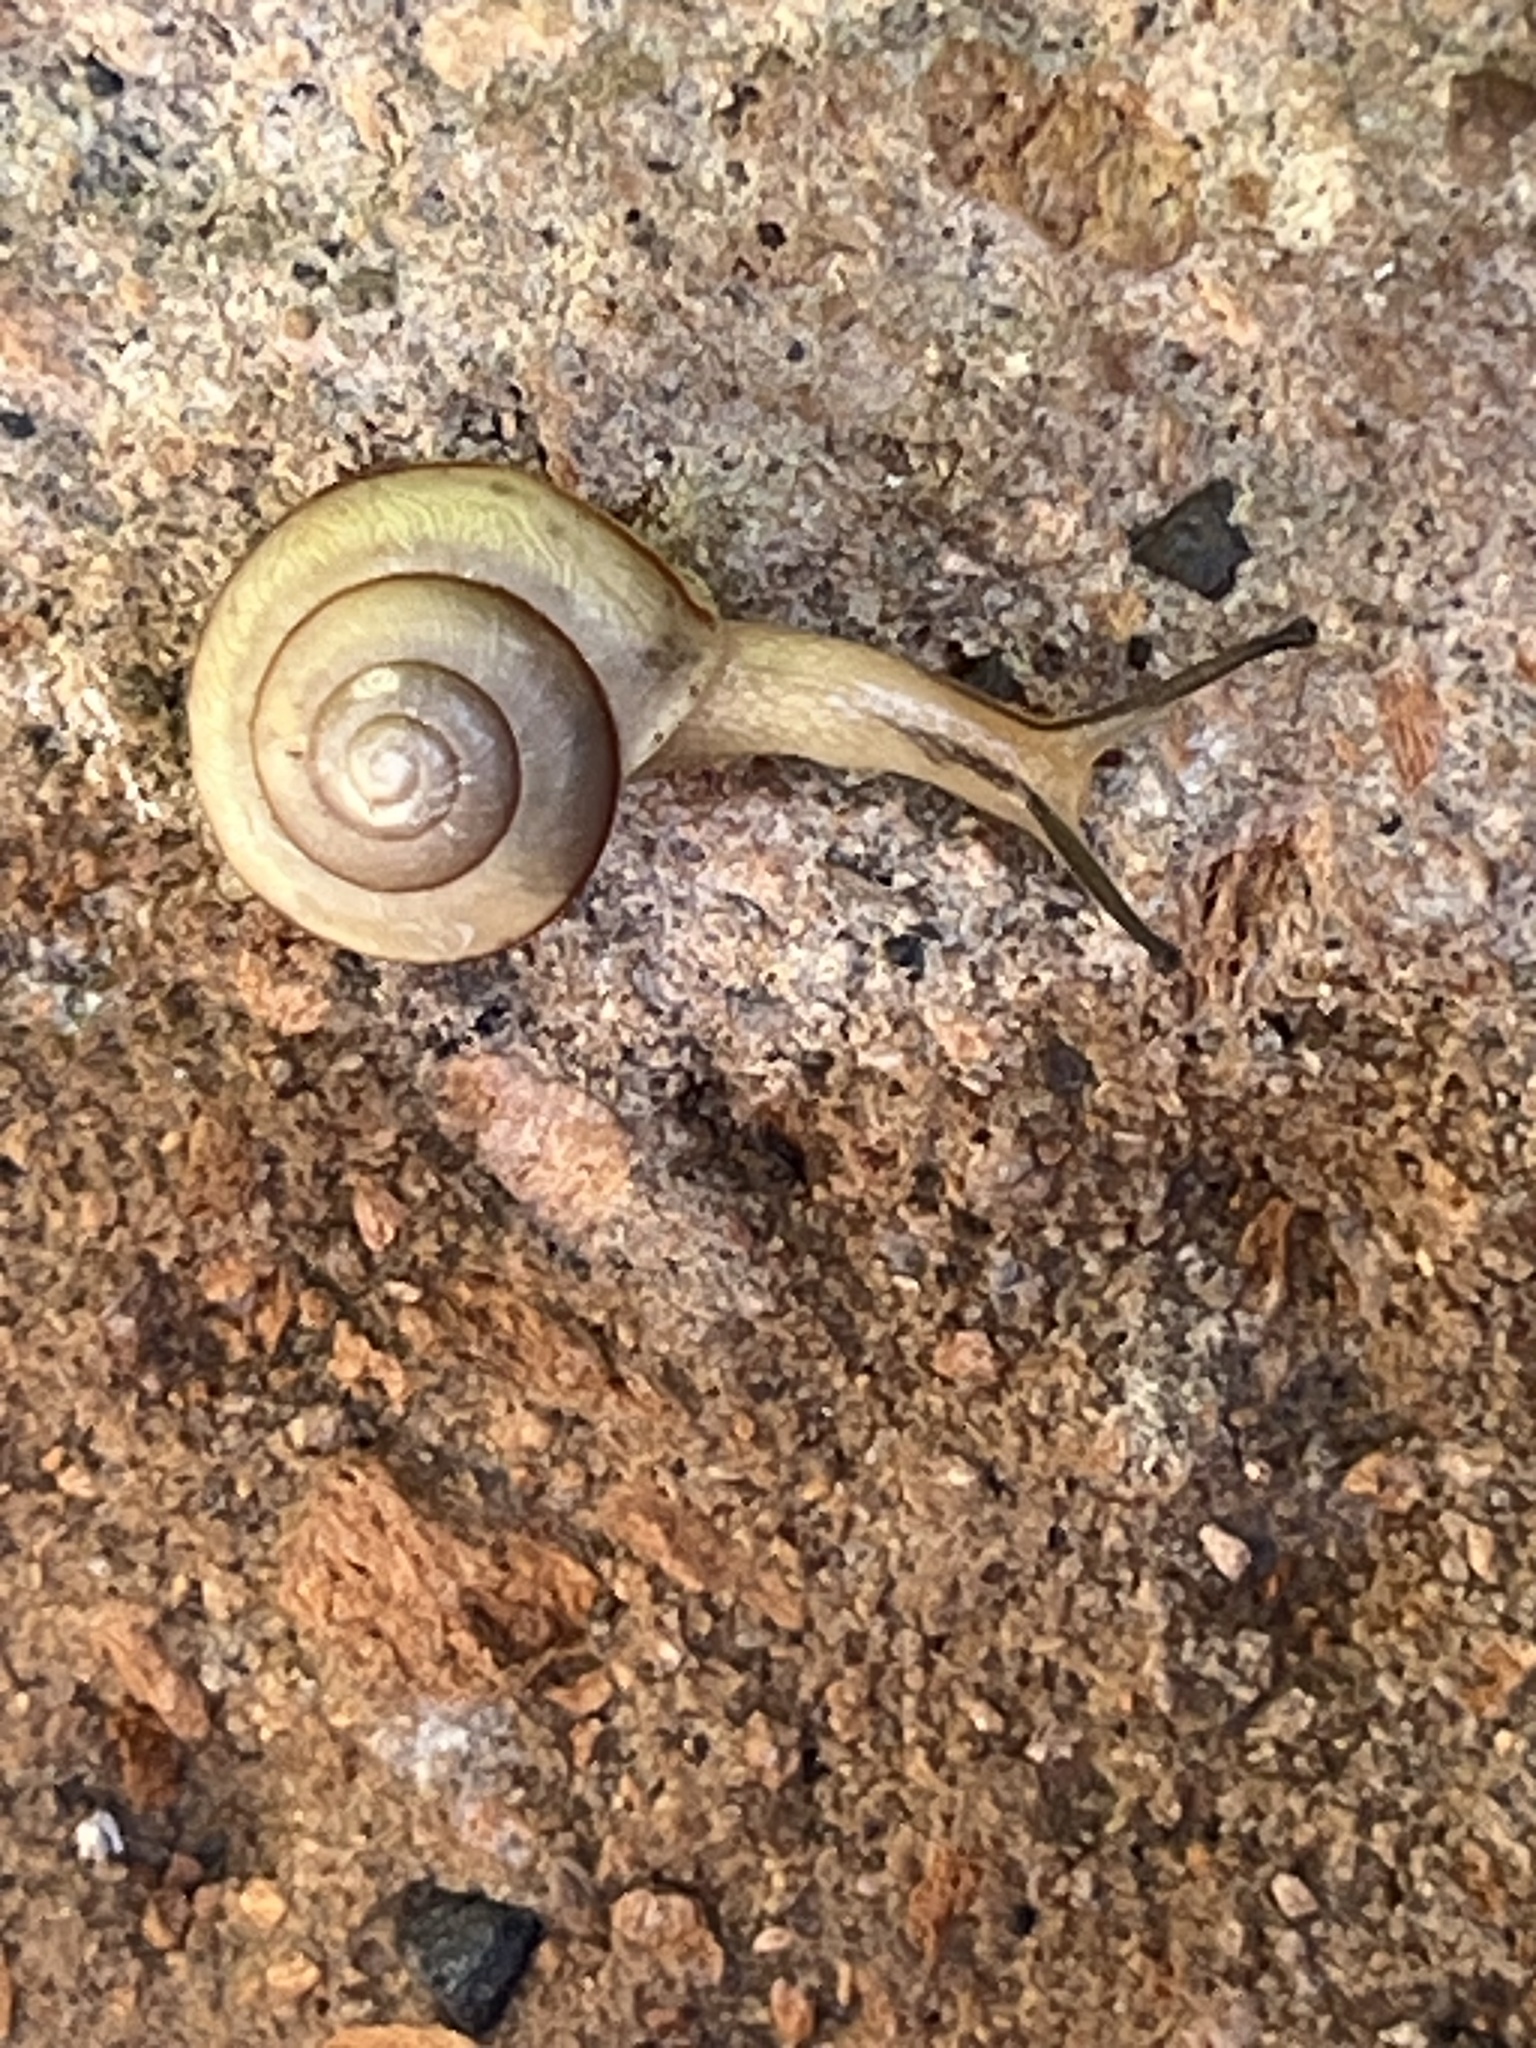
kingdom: Animalia
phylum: Mollusca
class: Gastropoda
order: Stylommatophora
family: Camaenidae
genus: Bradybaena
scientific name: Bradybaena similaris
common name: Asian trampsnail
